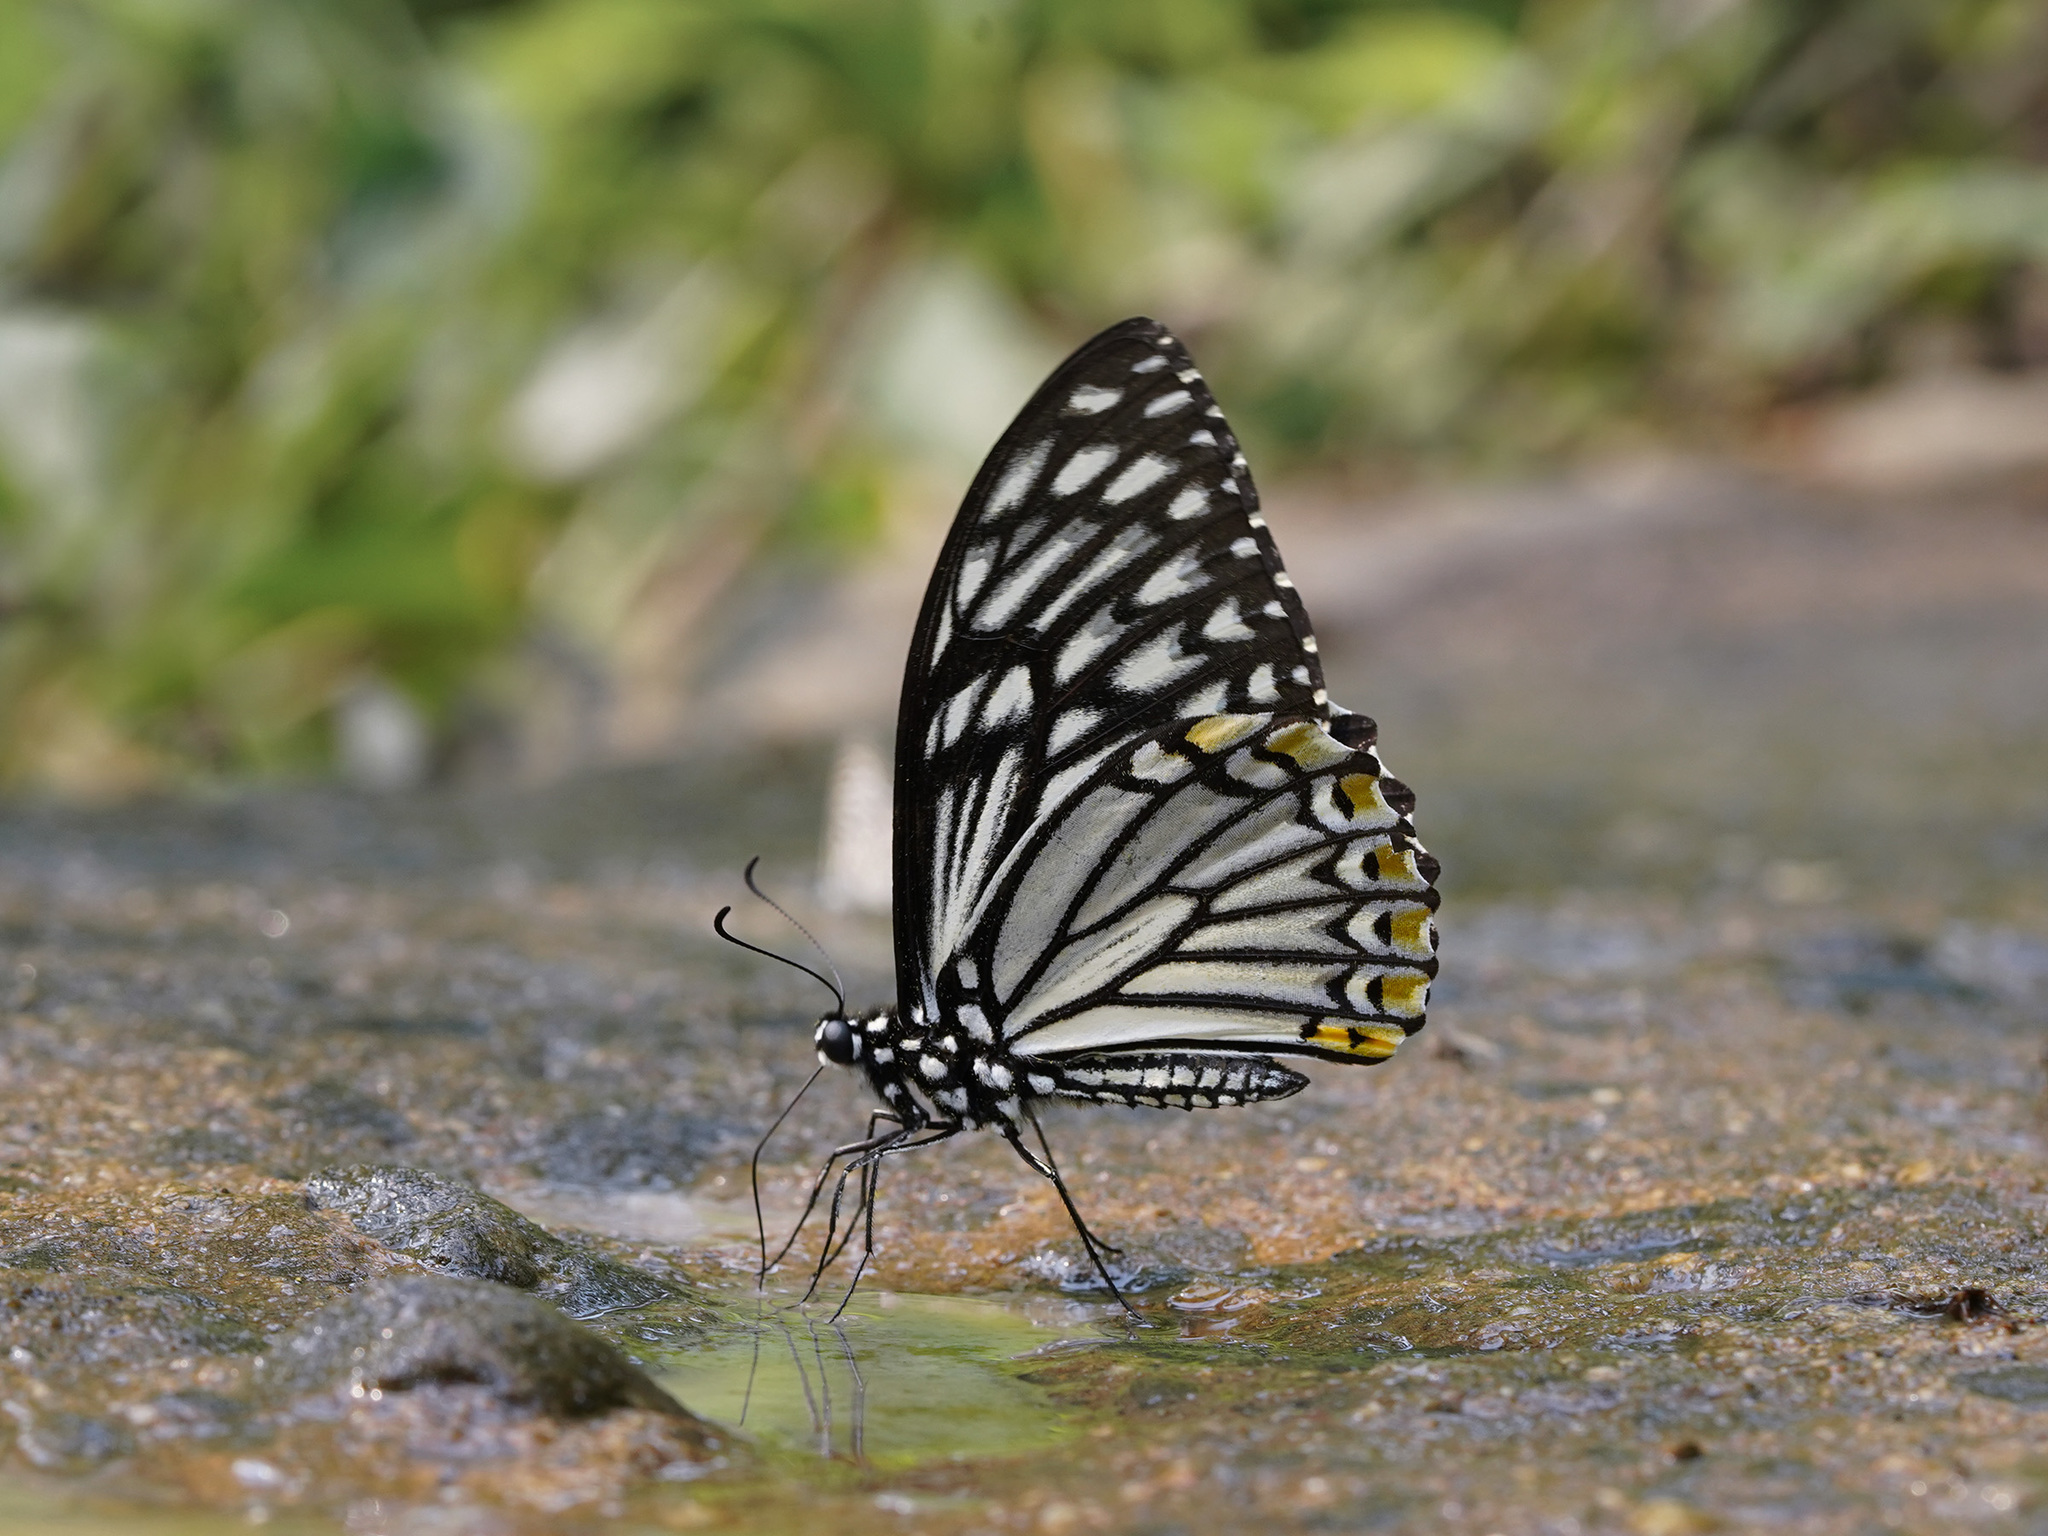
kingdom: Animalia
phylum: Arthropoda
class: Insecta
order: Lepidoptera
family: Papilionidae
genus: Chilasa
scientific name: Chilasa clytia
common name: Common mime
